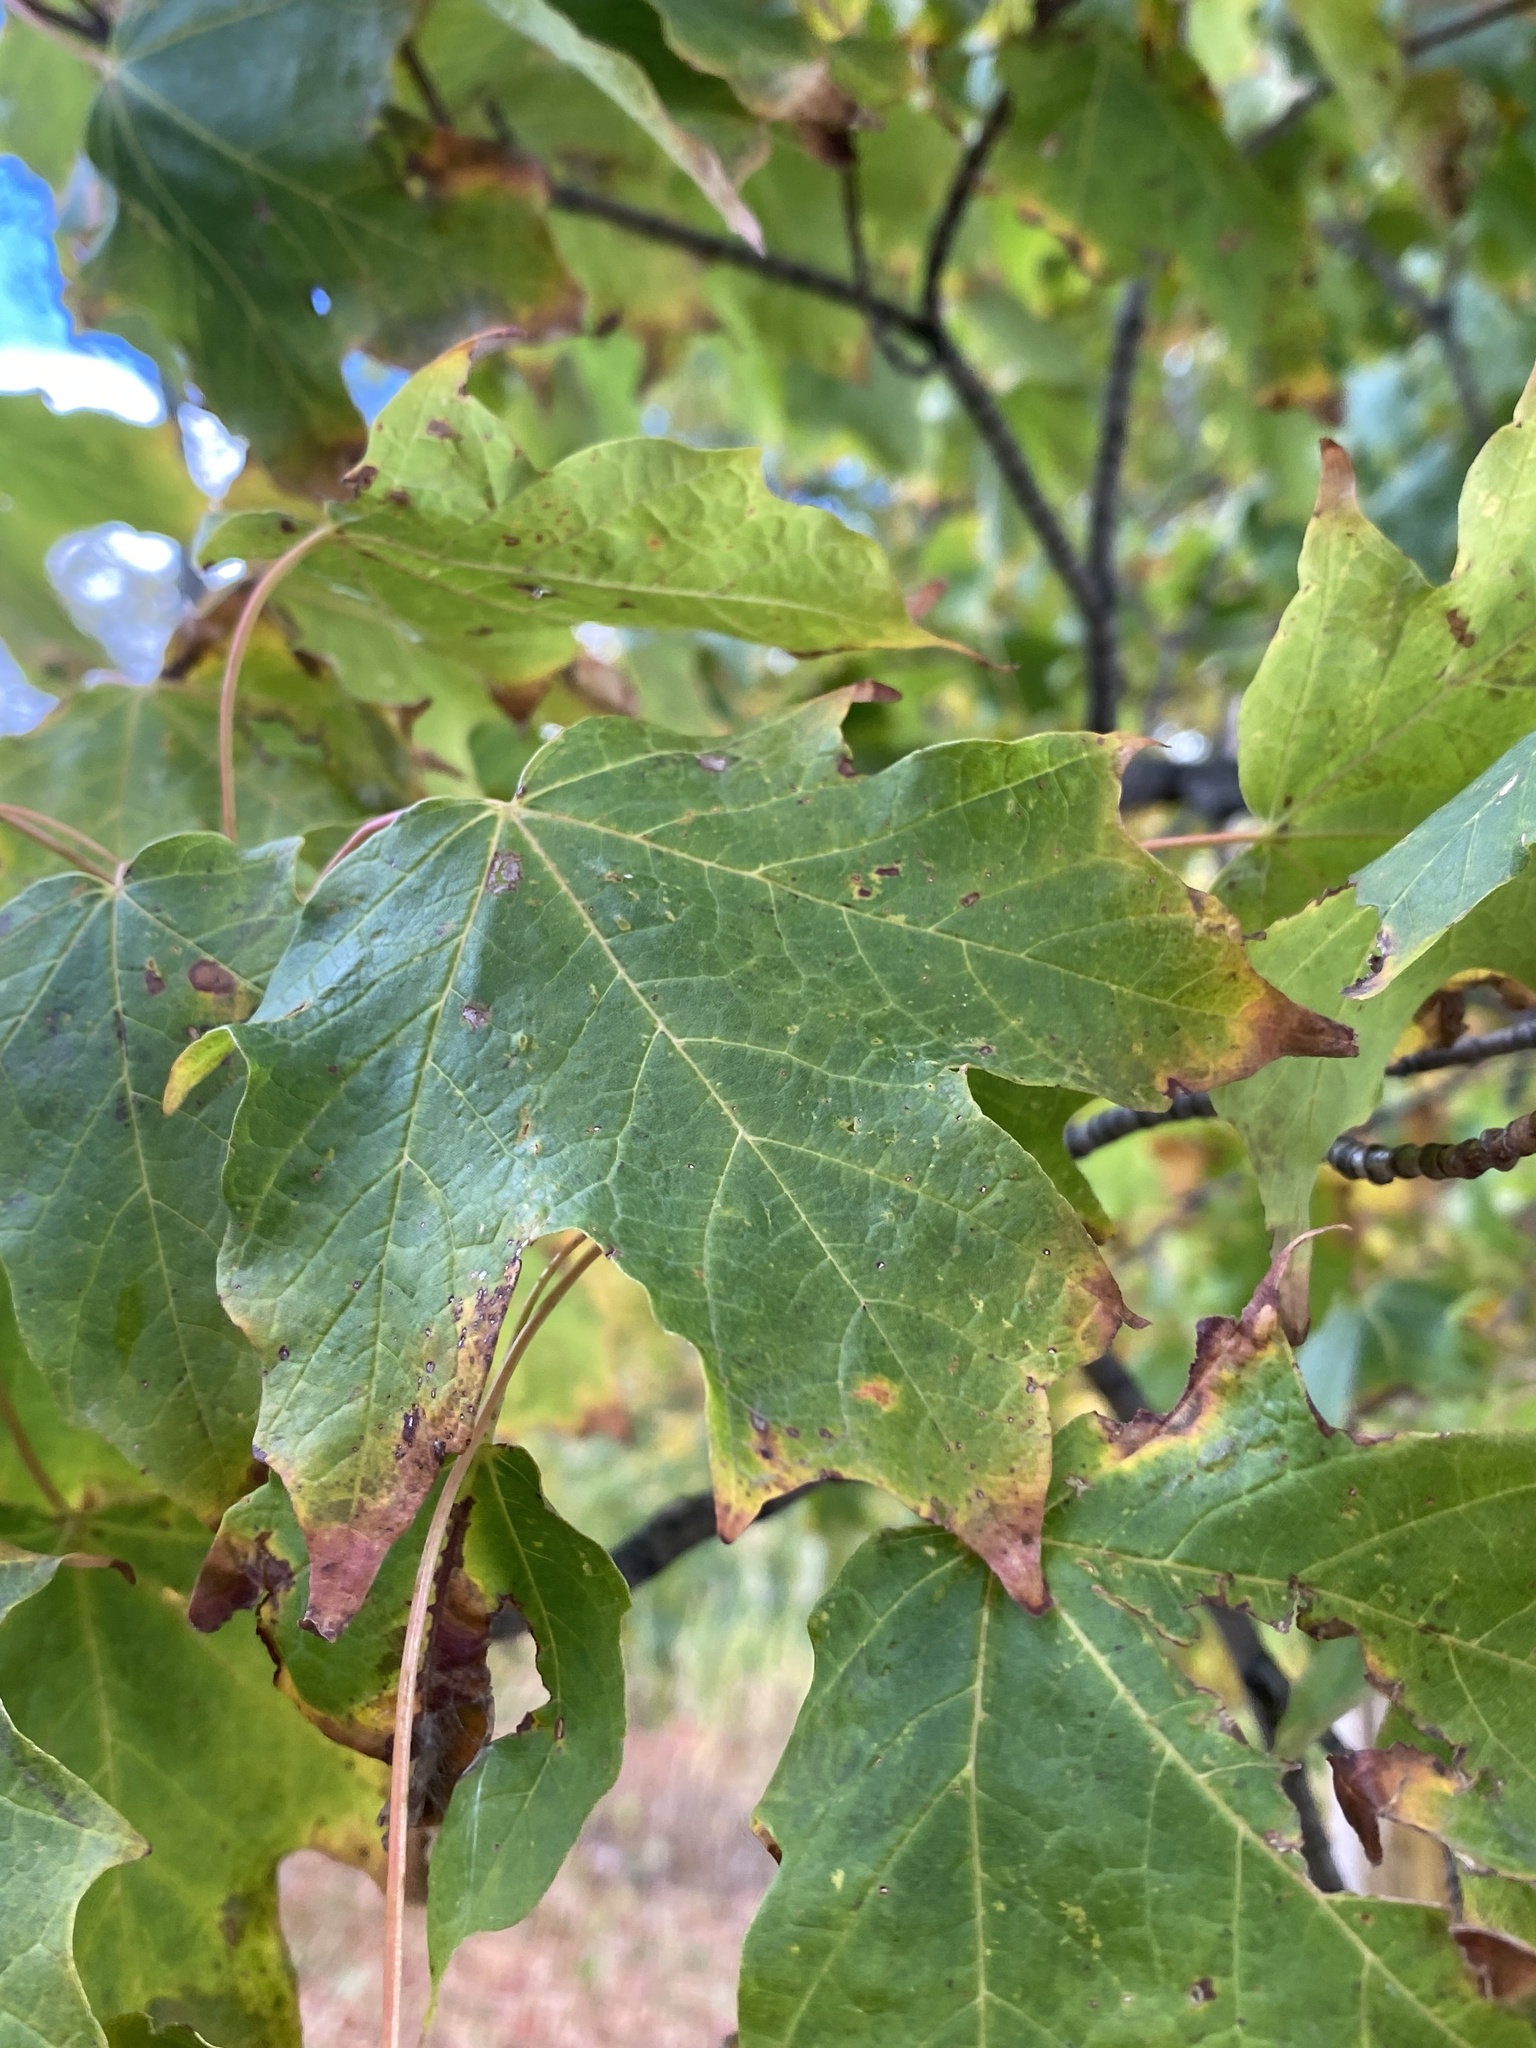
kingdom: Plantae
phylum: Tracheophyta
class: Magnoliopsida
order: Sapindales
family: Sapindaceae
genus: Acer
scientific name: Acer saccharum
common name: Sugar maple
